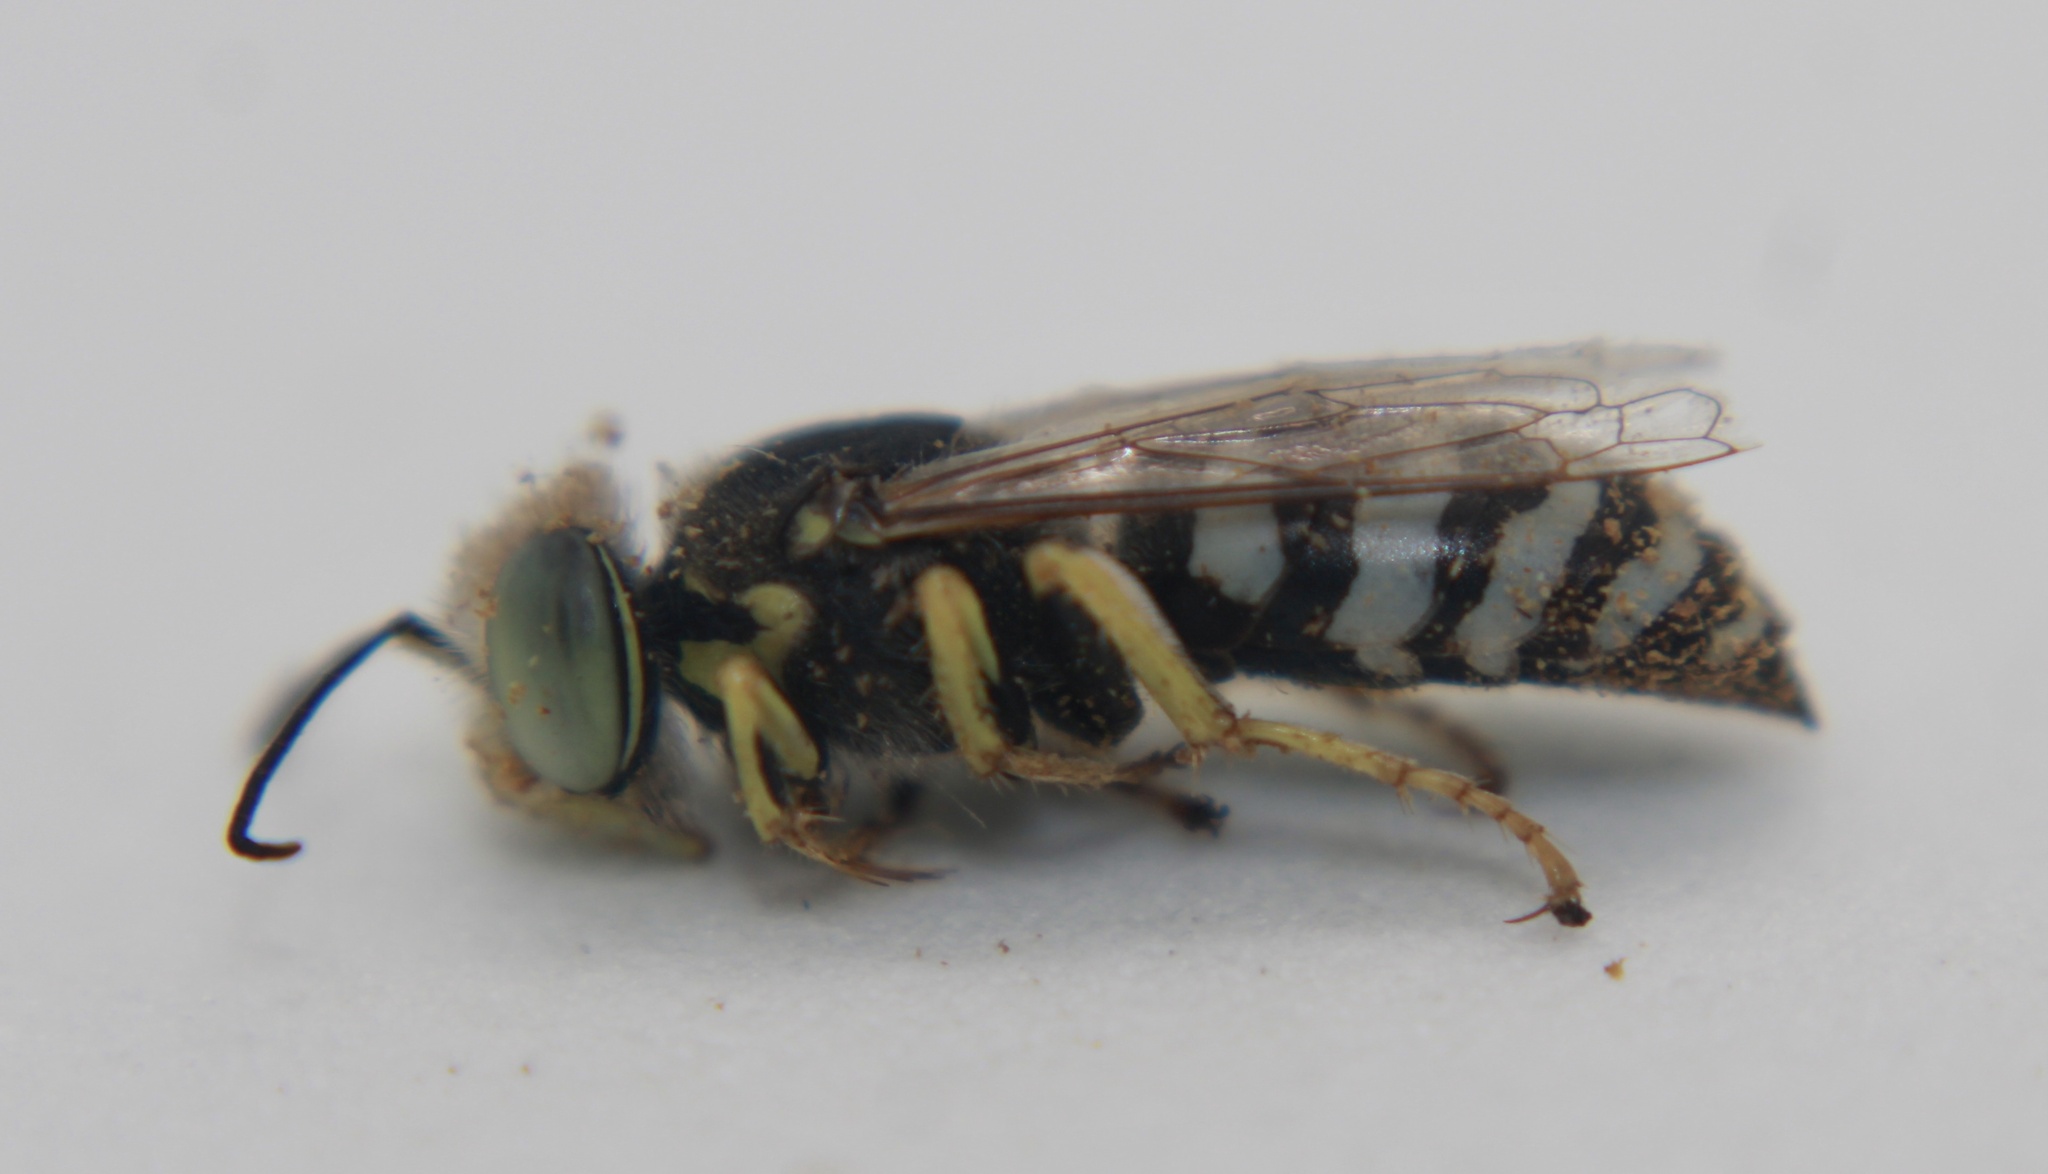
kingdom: Animalia
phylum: Arthropoda
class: Insecta
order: Hymenoptera
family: Crabronidae
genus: Bembix
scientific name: Bembix americana
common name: American sand wasp
